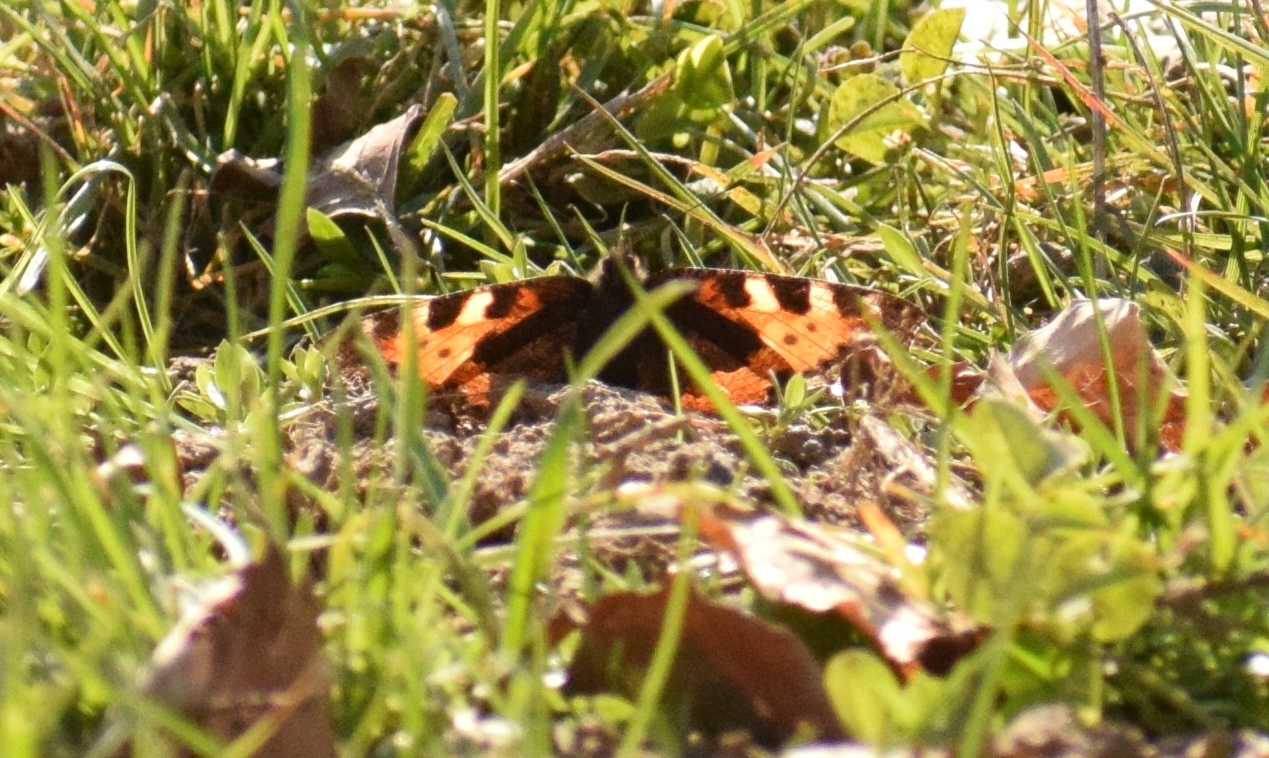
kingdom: Animalia
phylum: Arthropoda
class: Insecta
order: Lepidoptera
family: Nymphalidae
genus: Aglais
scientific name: Aglais urticae
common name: Small tortoiseshell
